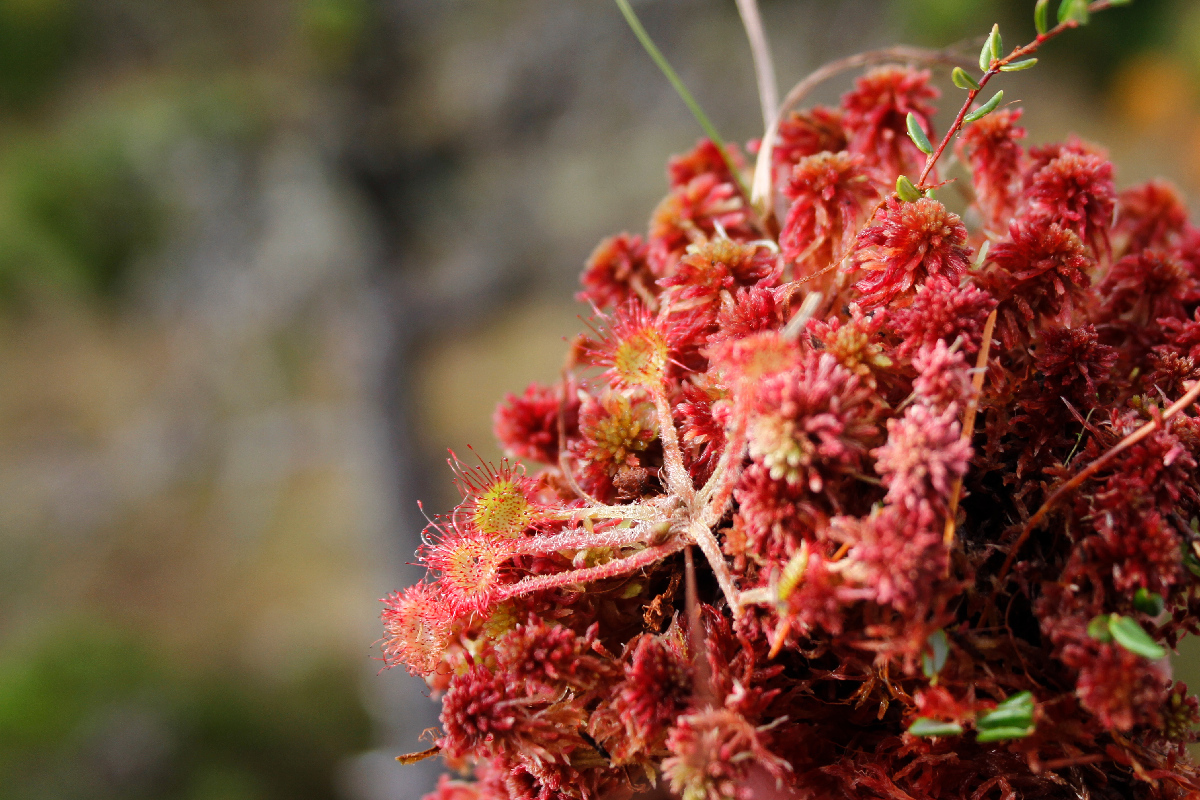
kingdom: Plantae
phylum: Tracheophyta
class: Magnoliopsida
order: Caryophyllales
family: Droseraceae
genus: Drosera
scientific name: Drosera rotundifolia
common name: Round-leaved sundew
